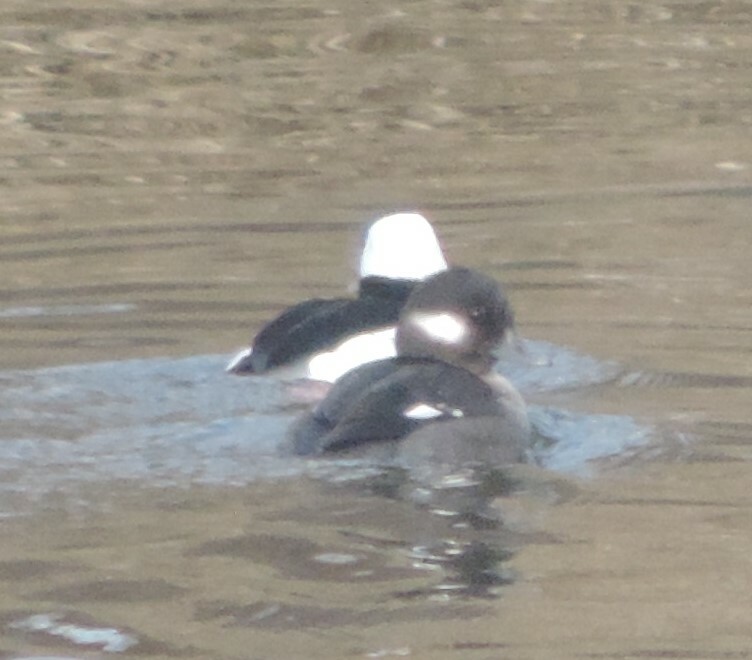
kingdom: Animalia
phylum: Chordata
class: Aves
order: Anseriformes
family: Anatidae
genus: Bucephala
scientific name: Bucephala albeola
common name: Bufflehead
